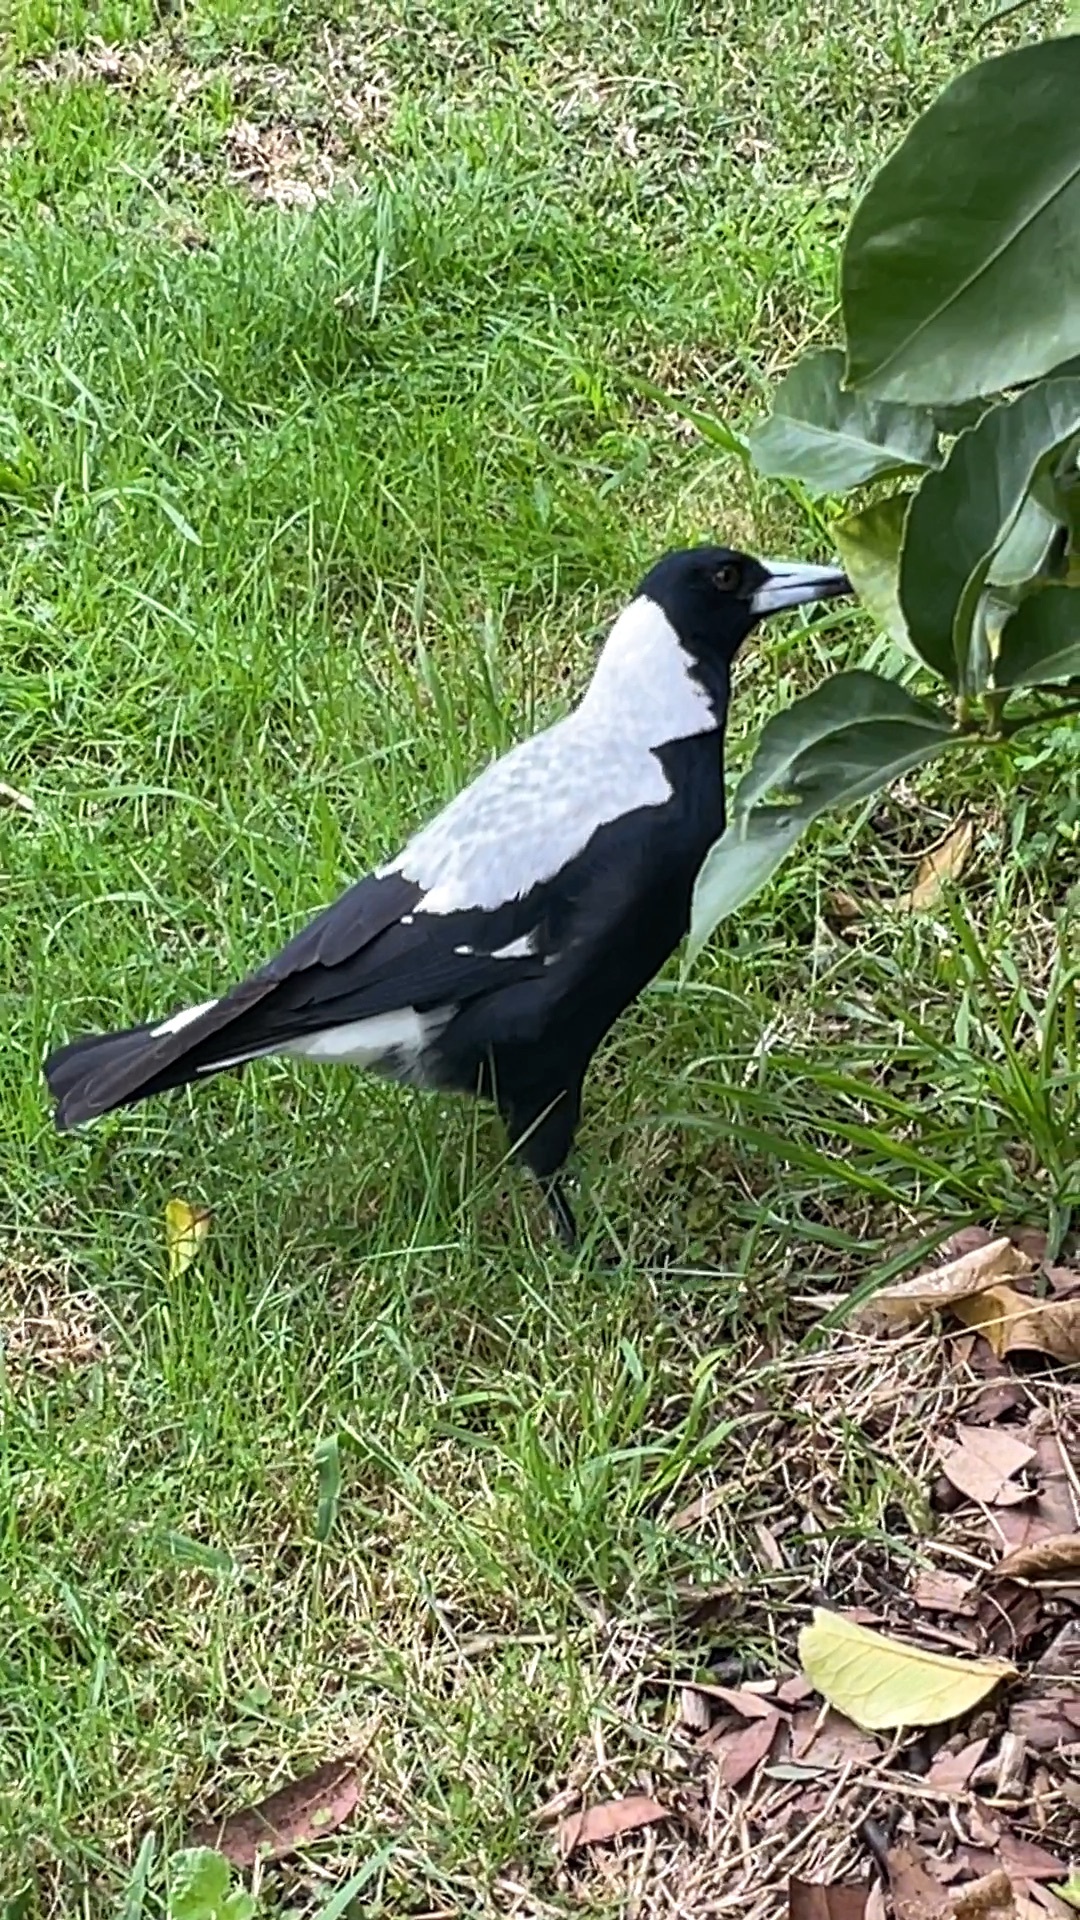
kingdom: Animalia
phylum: Chordata
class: Aves
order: Passeriformes
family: Cracticidae
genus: Gymnorhina
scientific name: Gymnorhina tibicen
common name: Australian magpie
